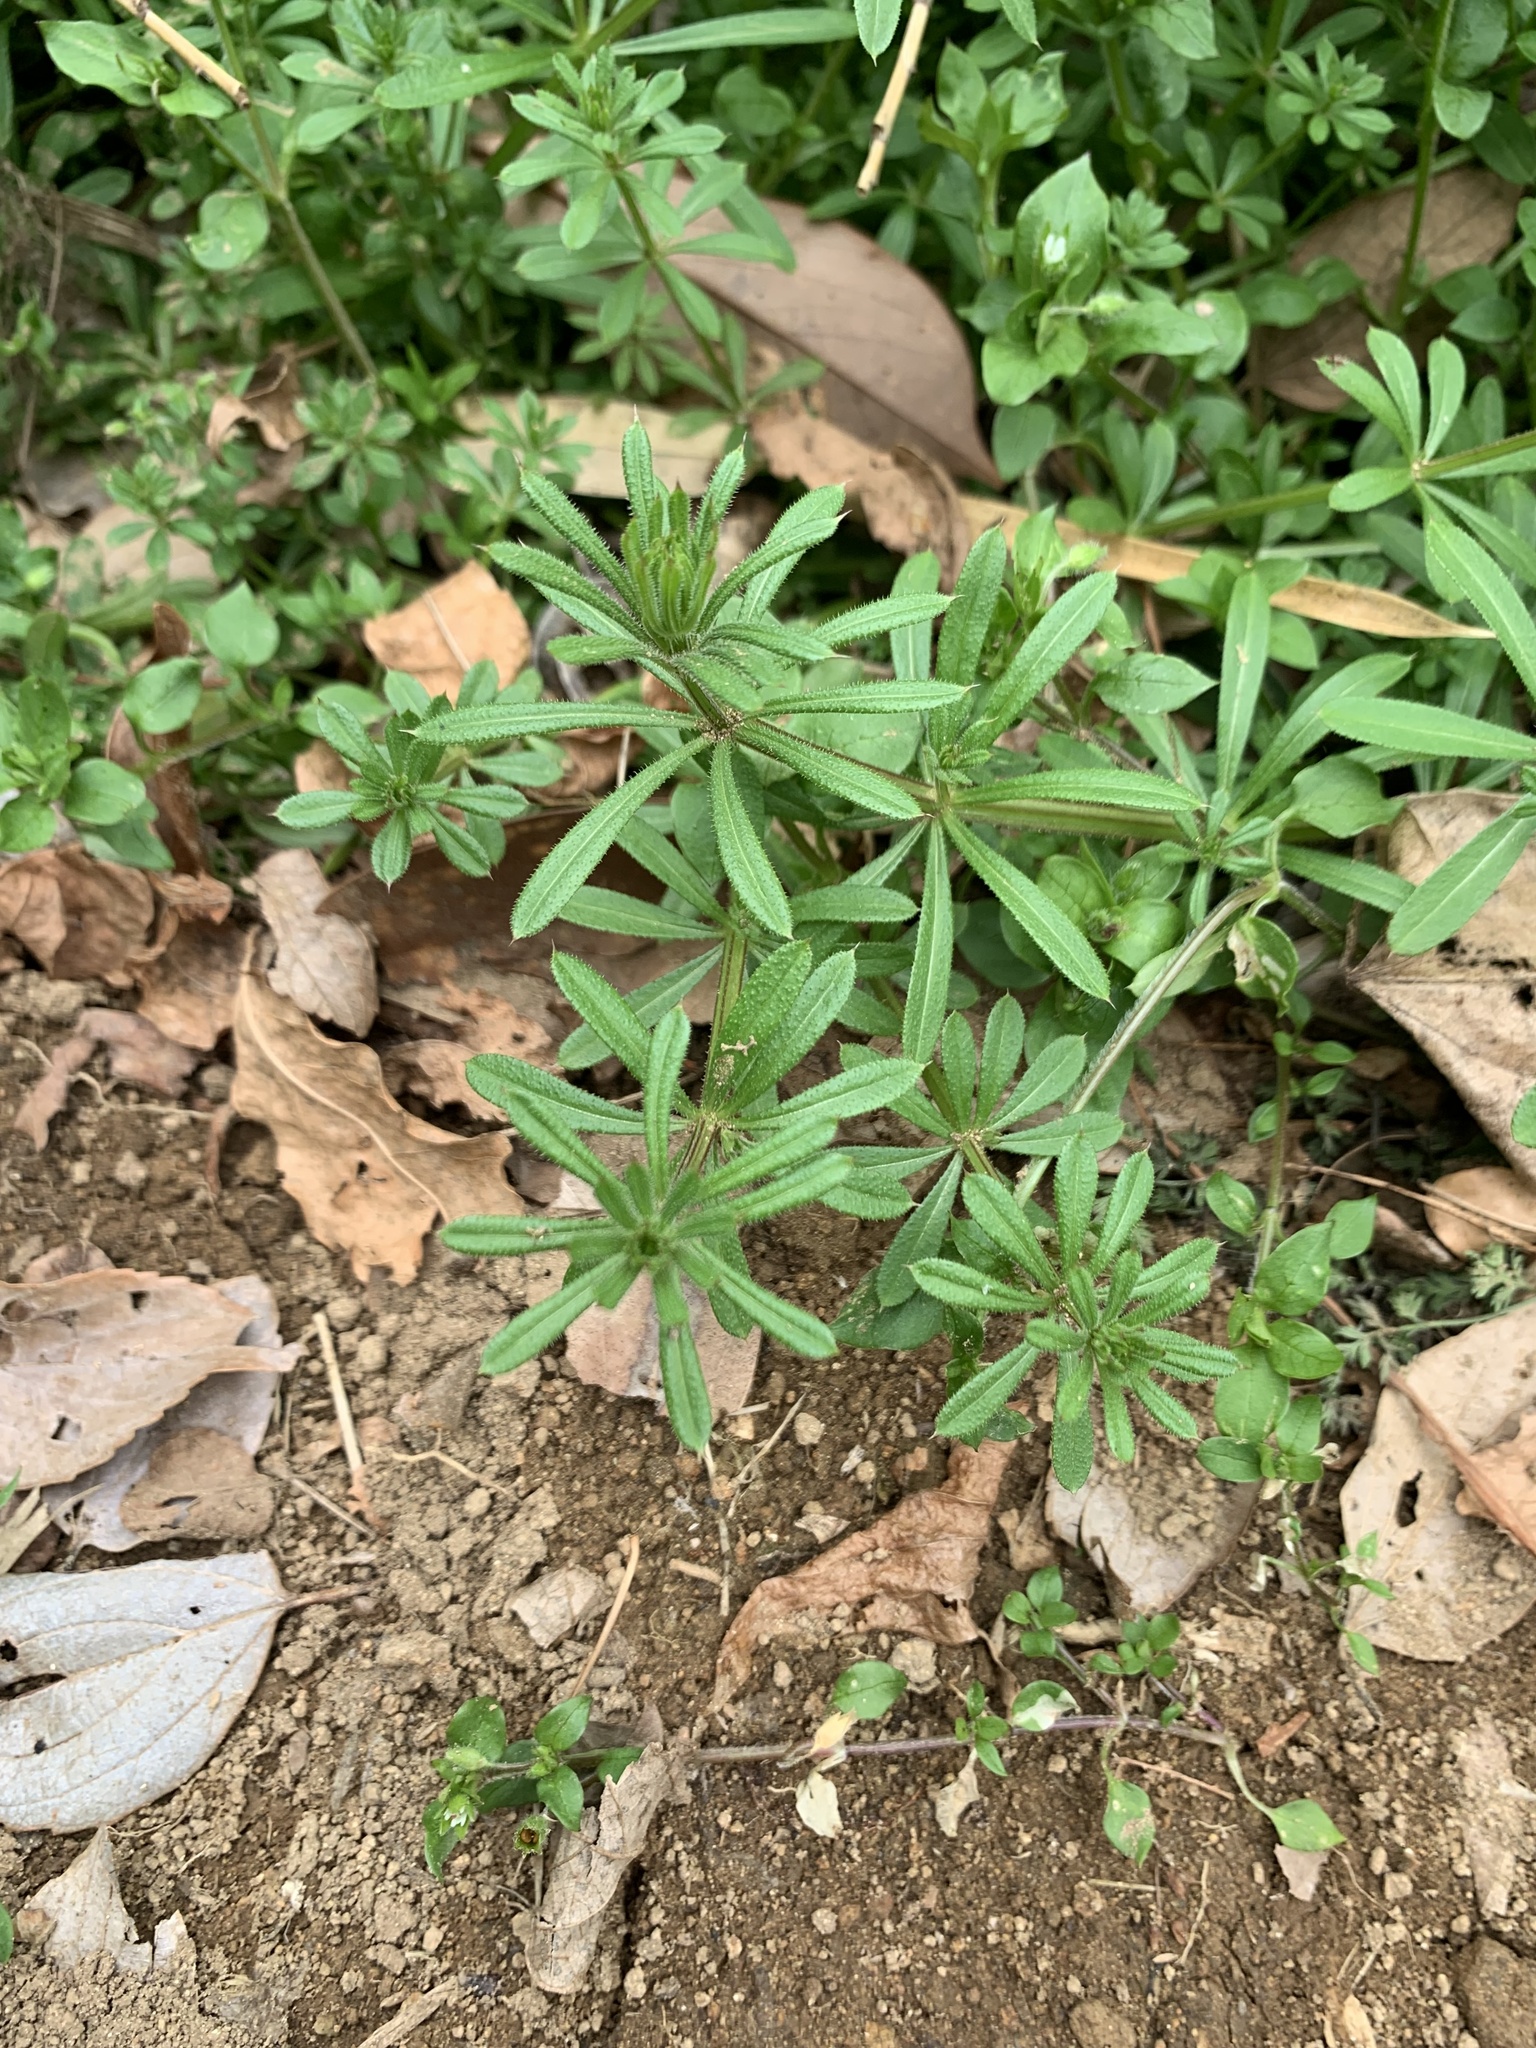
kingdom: Plantae
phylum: Tracheophyta
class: Magnoliopsida
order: Gentianales
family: Rubiaceae
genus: Galium
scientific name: Galium
